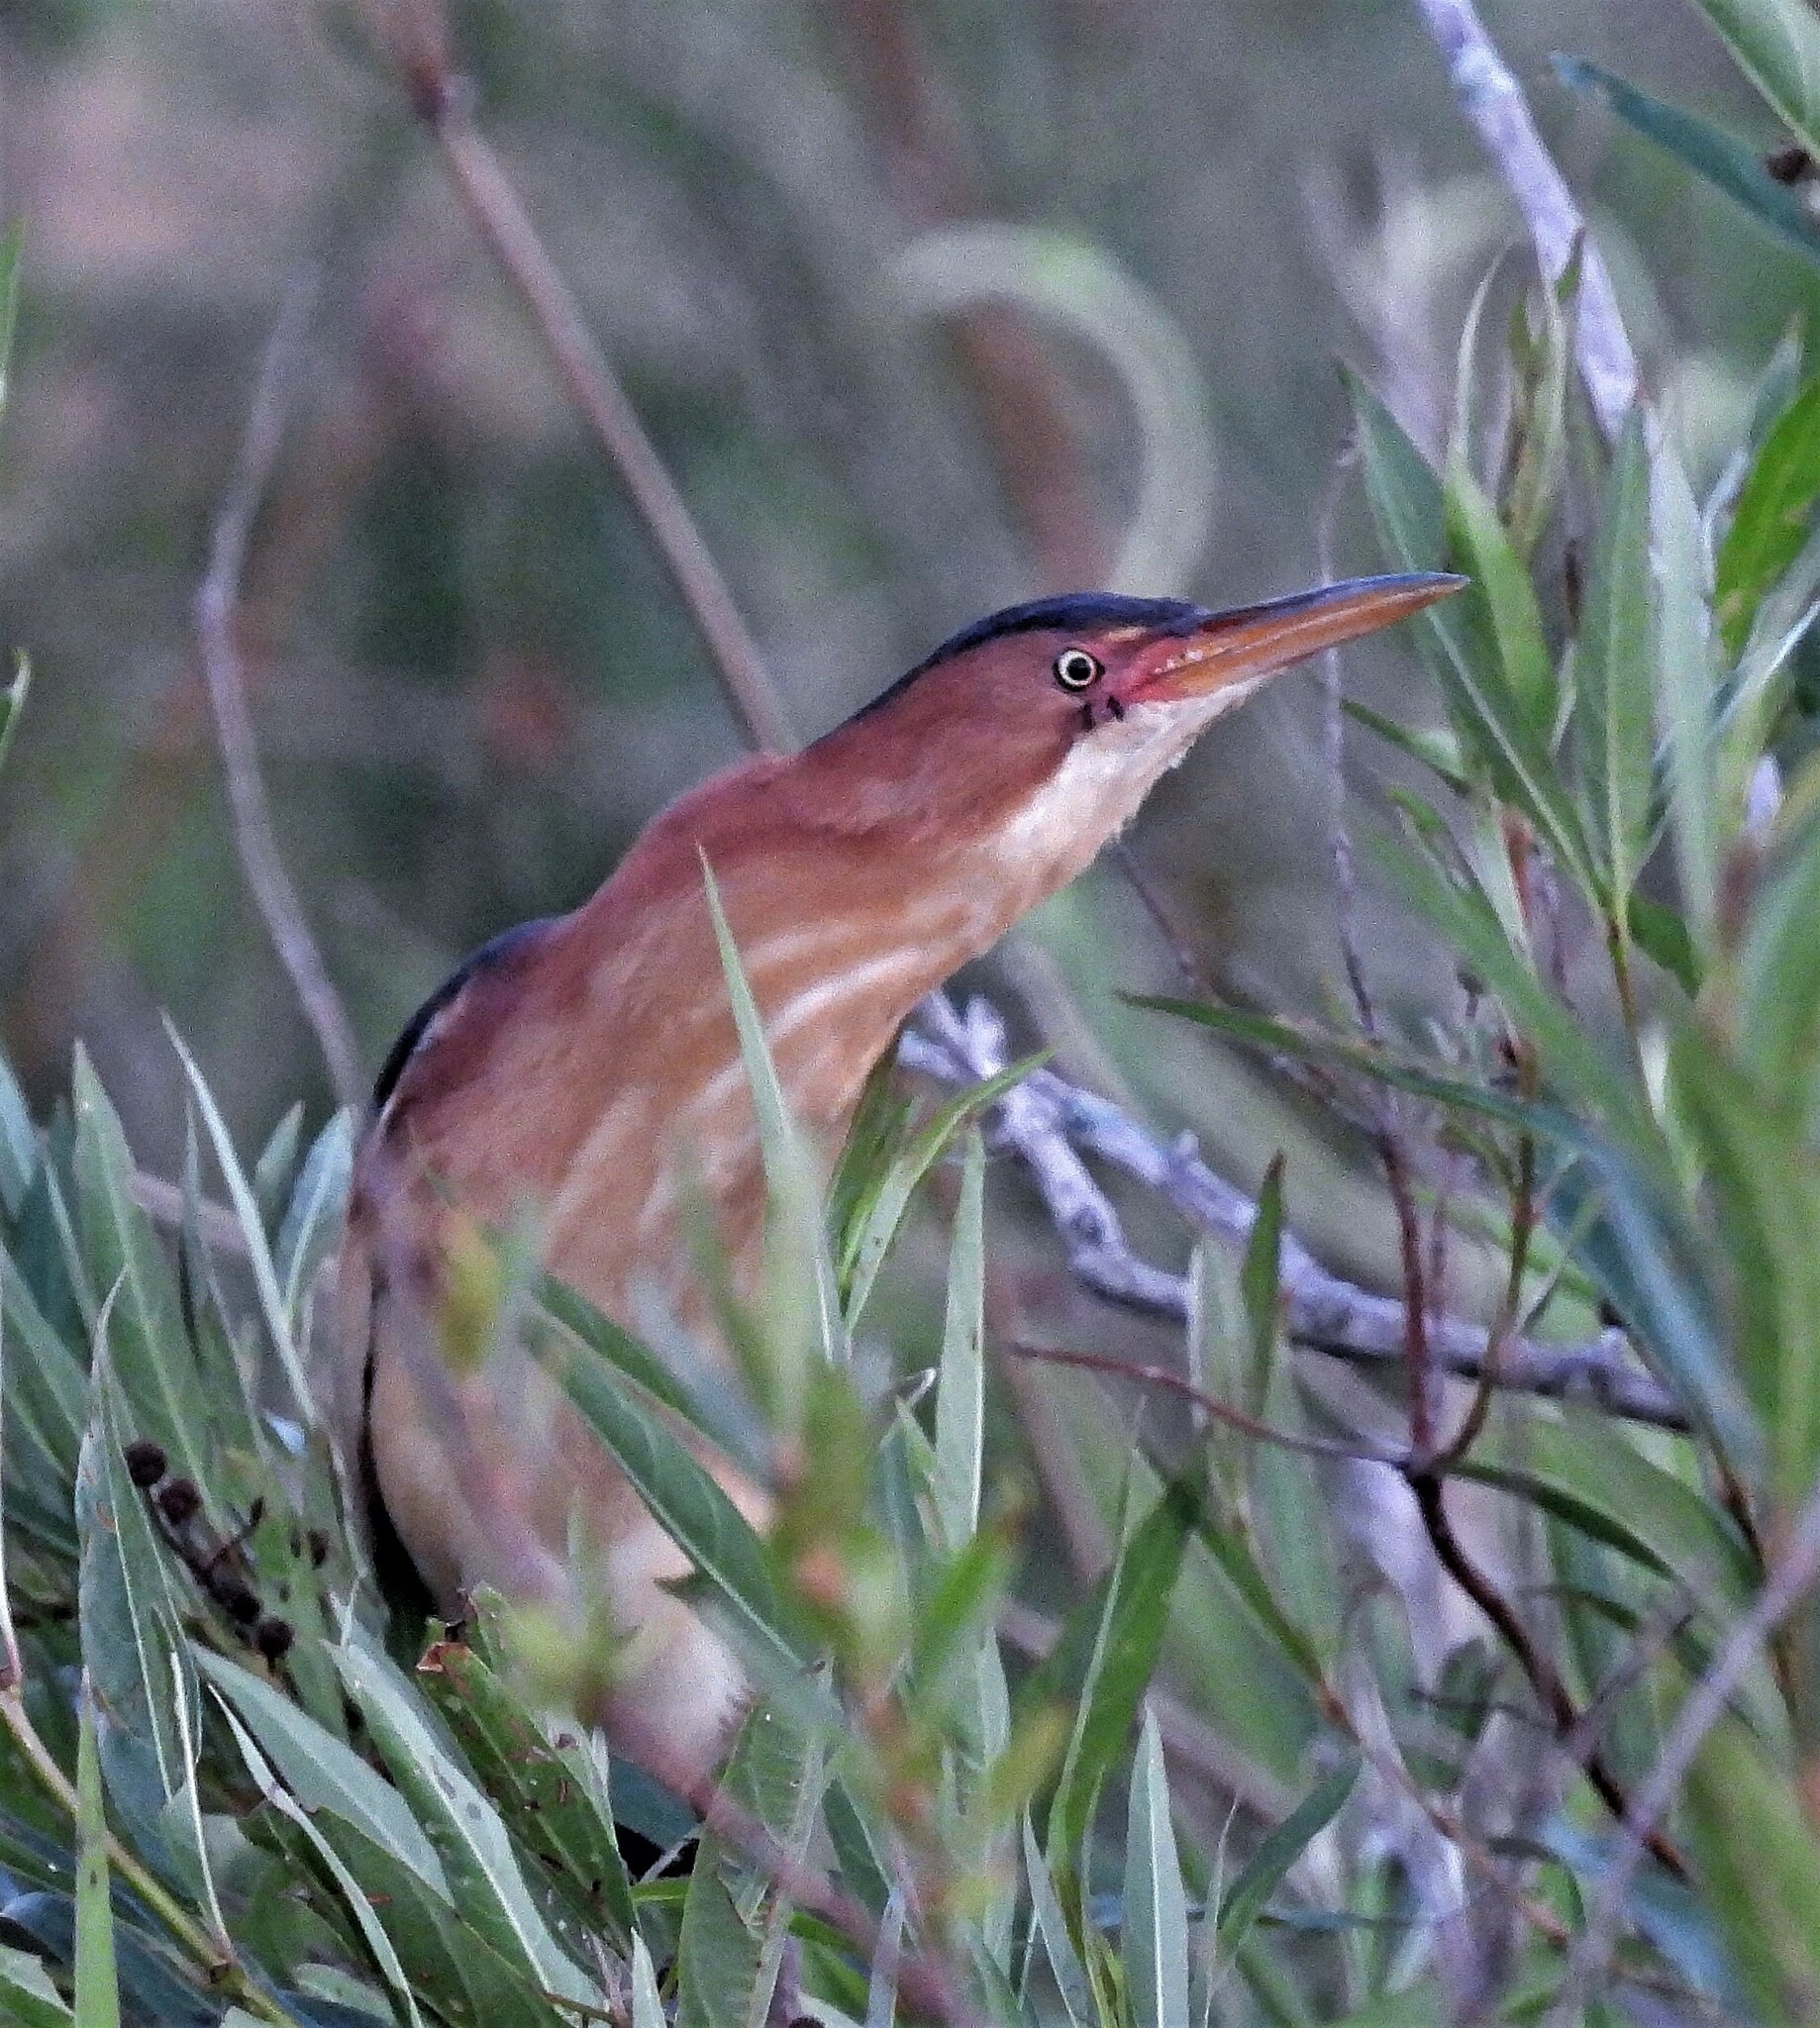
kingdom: Animalia
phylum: Chordata
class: Aves
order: Pelecaniformes
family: Ardeidae
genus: Ixobrychus
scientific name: Ixobrychus exilis
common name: Least bittern
